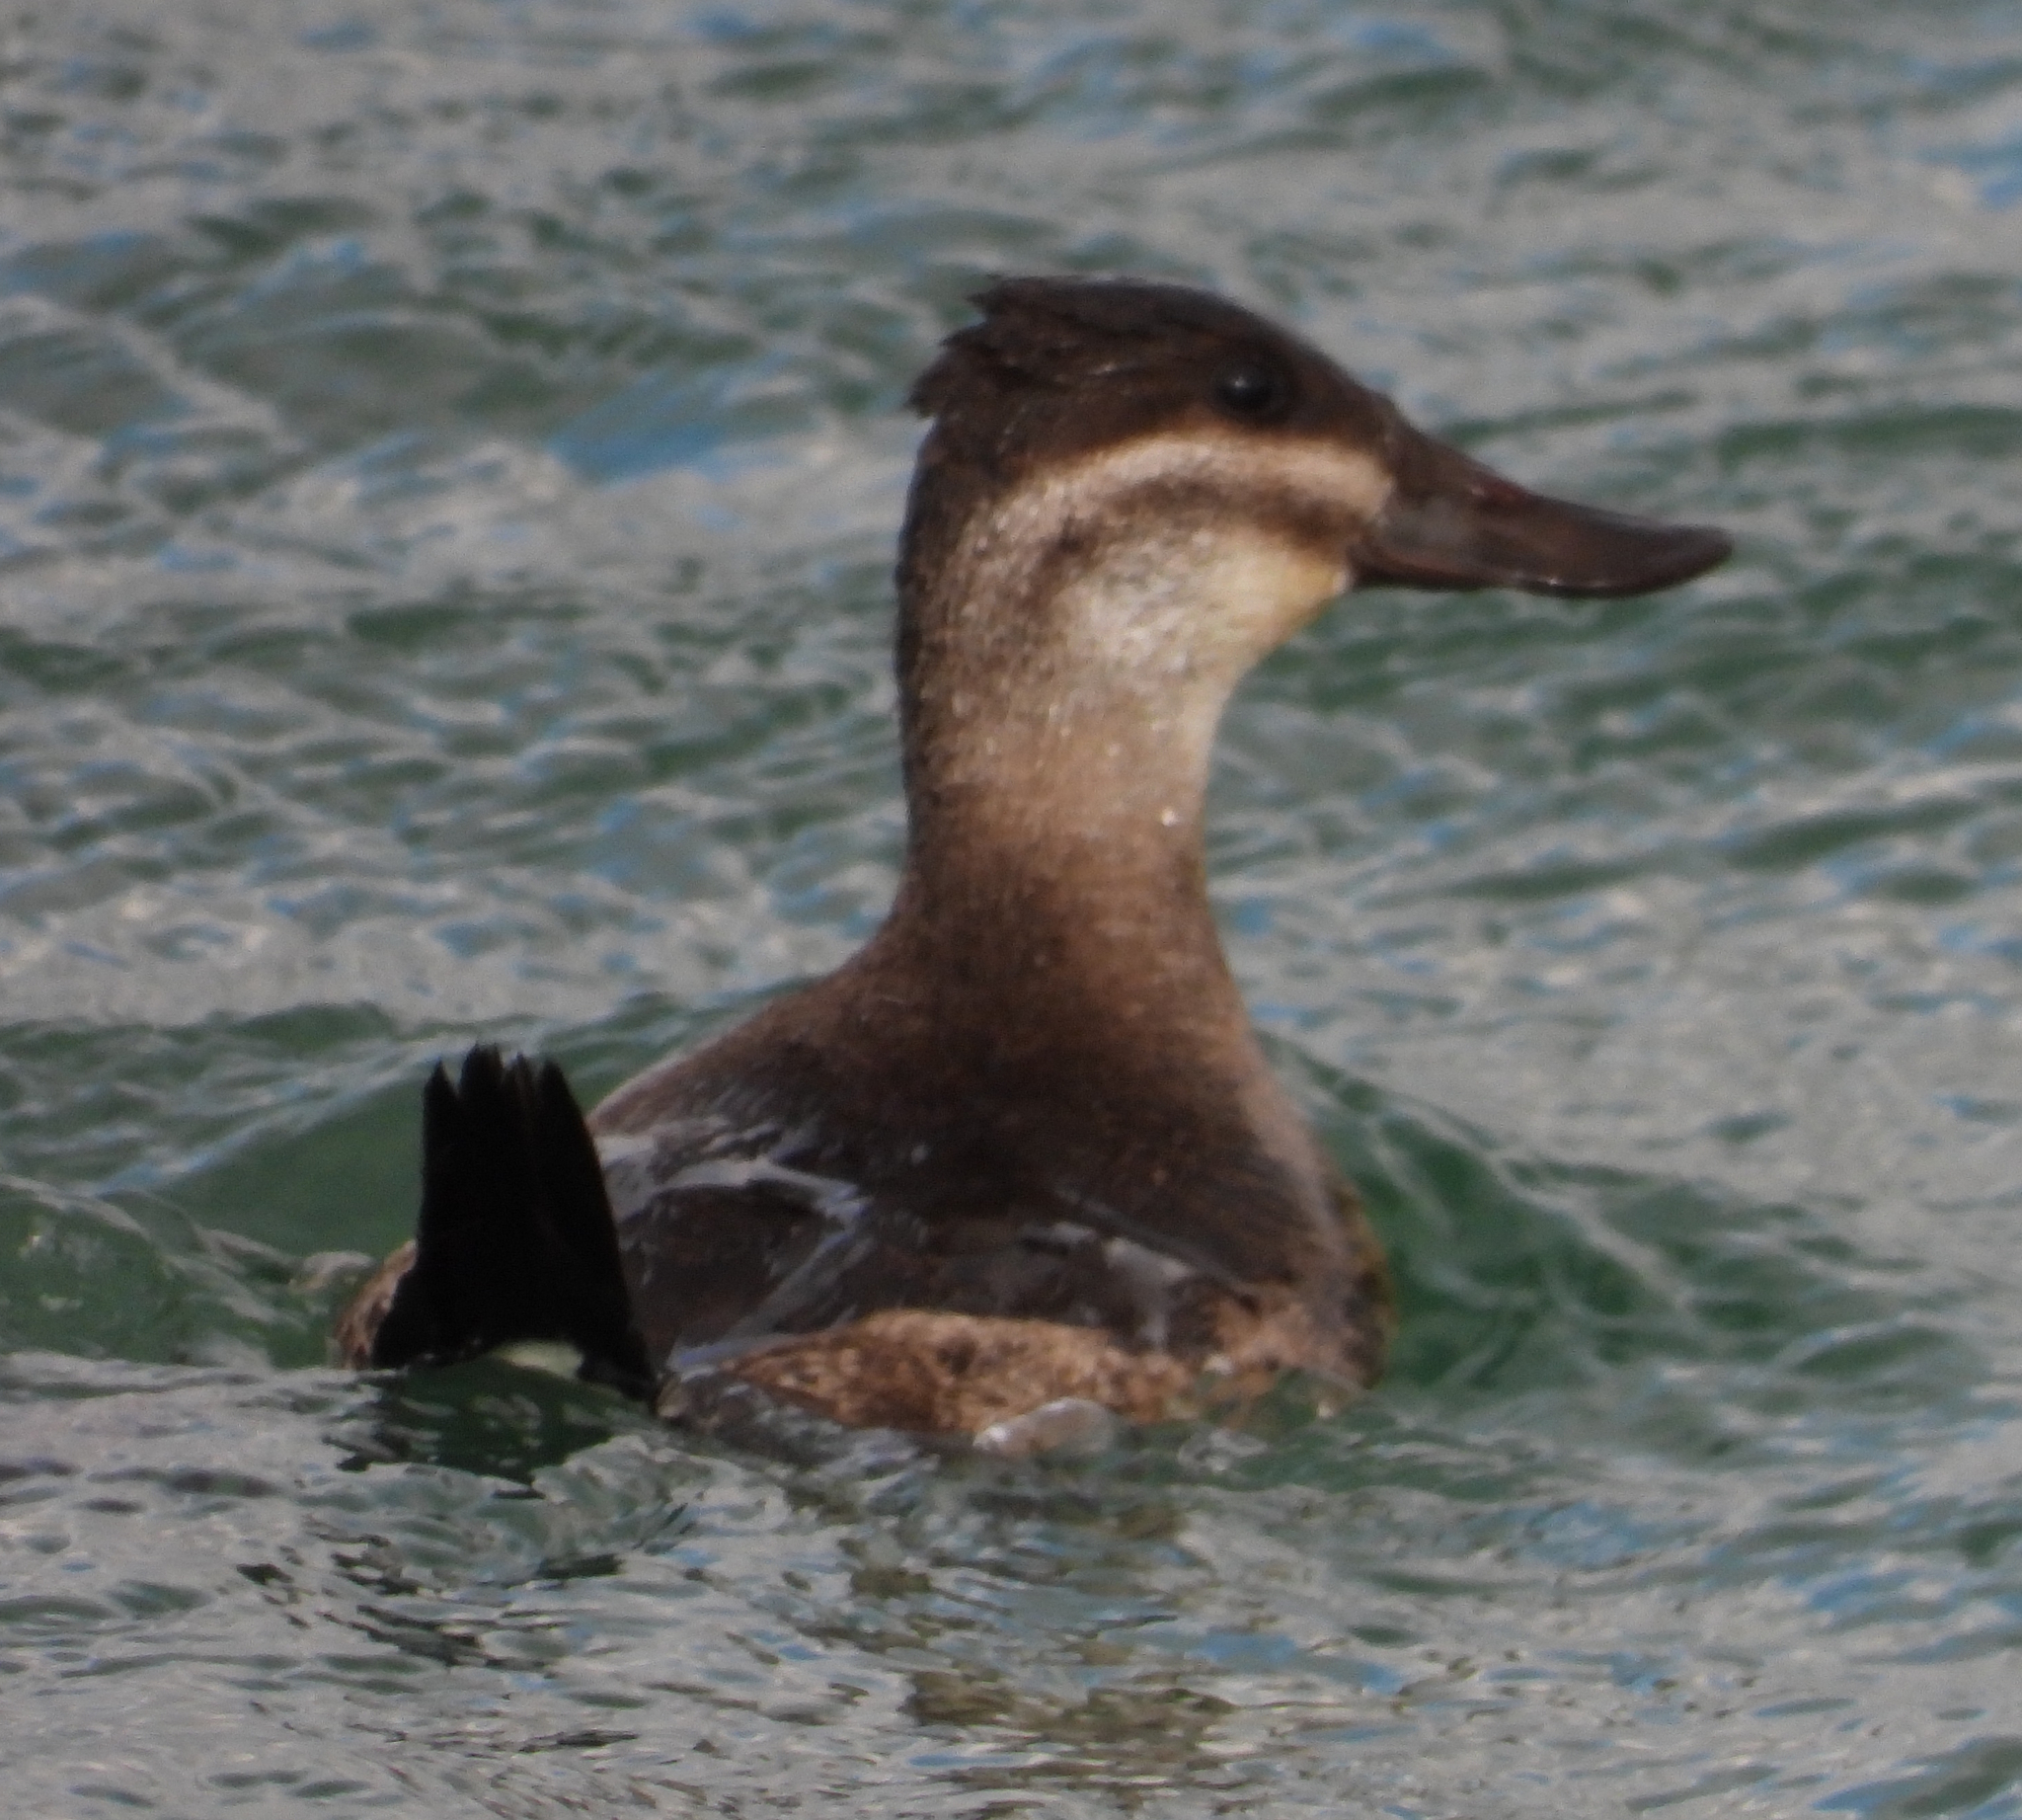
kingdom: Animalia
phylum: Chordata
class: Aves
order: Anseriformes
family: Anatidae
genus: Oxyura
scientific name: Oxyura jamaicensis
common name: Ruddy duck
